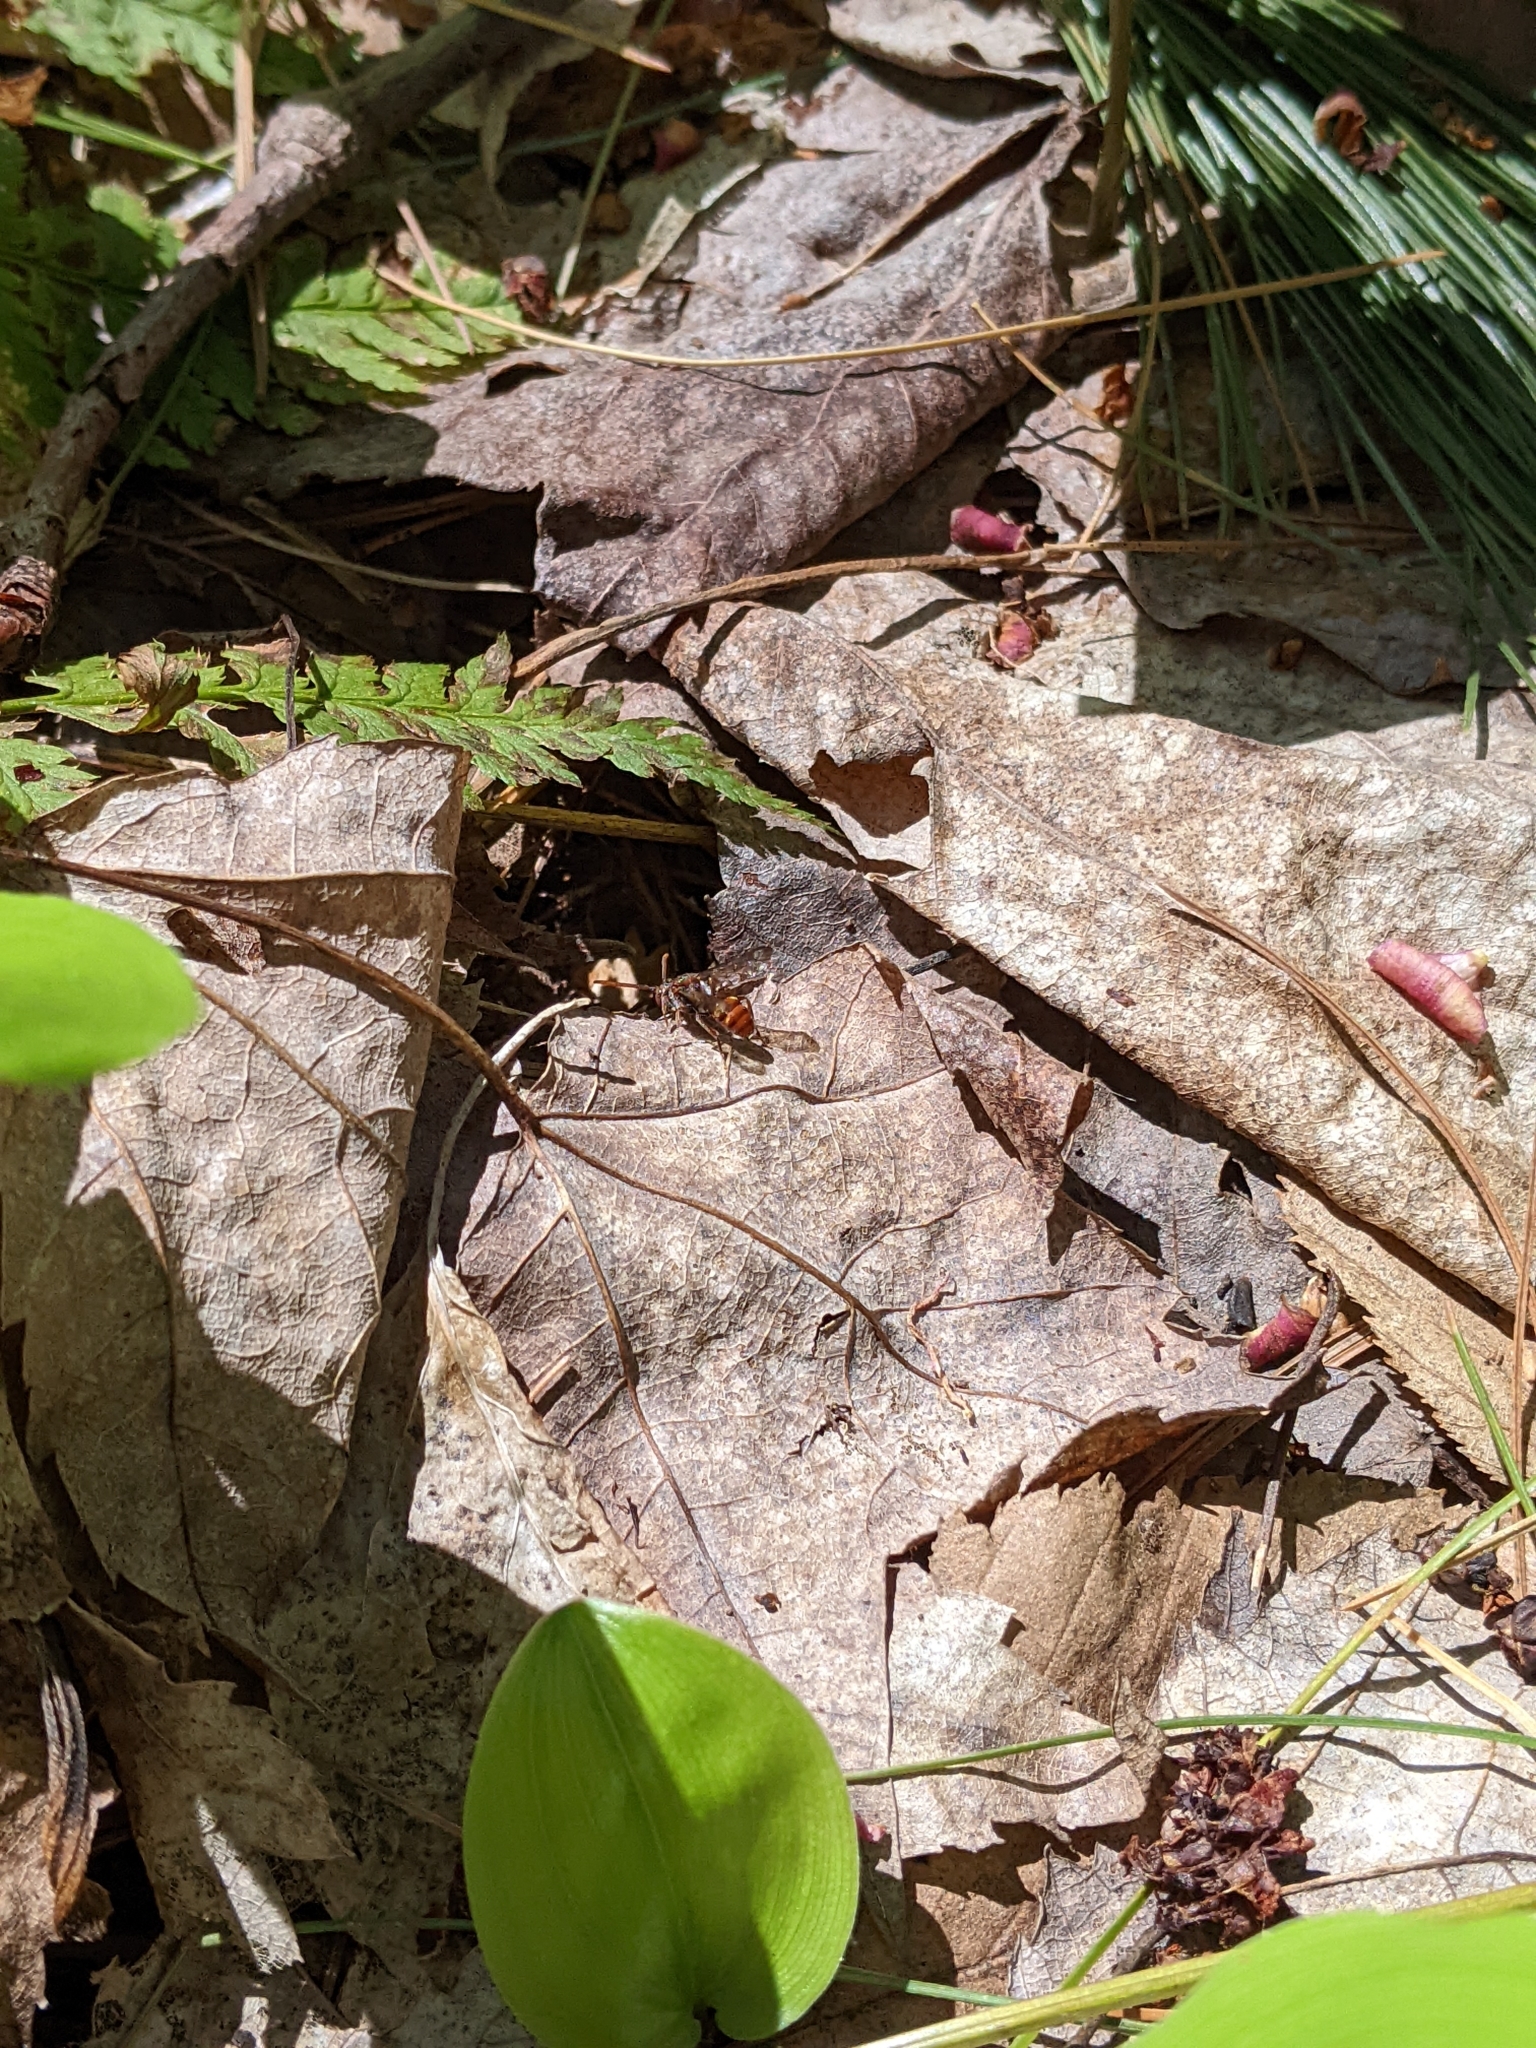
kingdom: Animalia
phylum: Arthropoda
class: Insecta
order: Hymenoptera
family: Apidae
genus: Nomada
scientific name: Nomada
